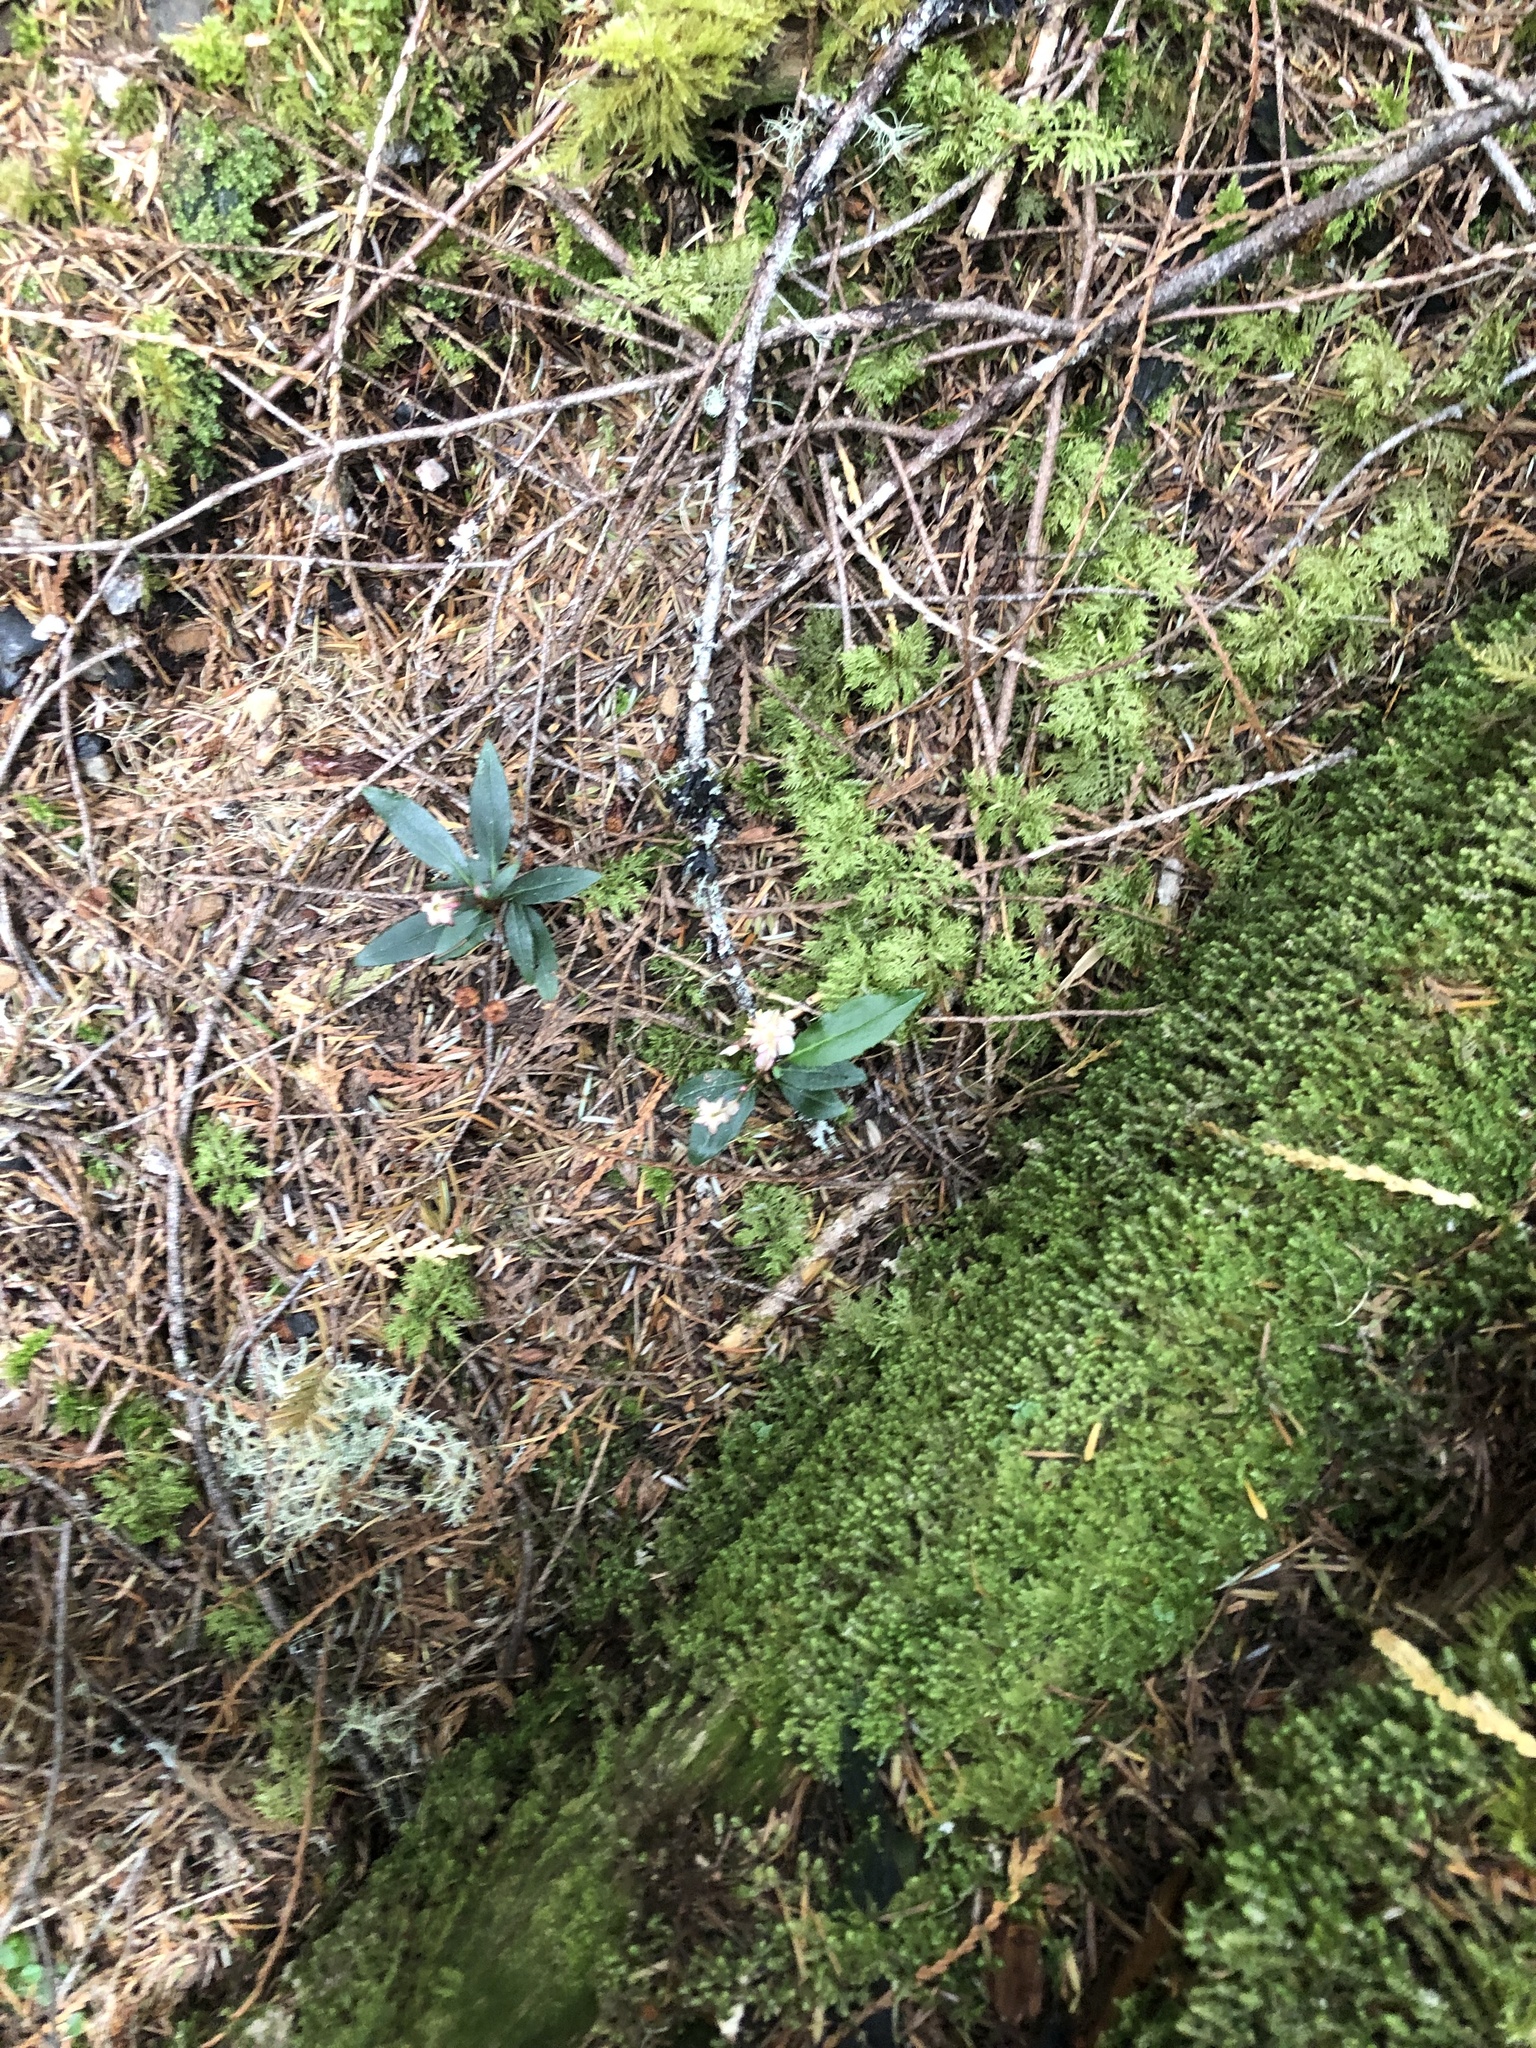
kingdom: Plantae
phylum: Tracheophyta
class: Magnoliopsida
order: Ericales
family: Ericaceae
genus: Chimaphila
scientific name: Chimaphila menziesii
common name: Menzies' pipsissewa
